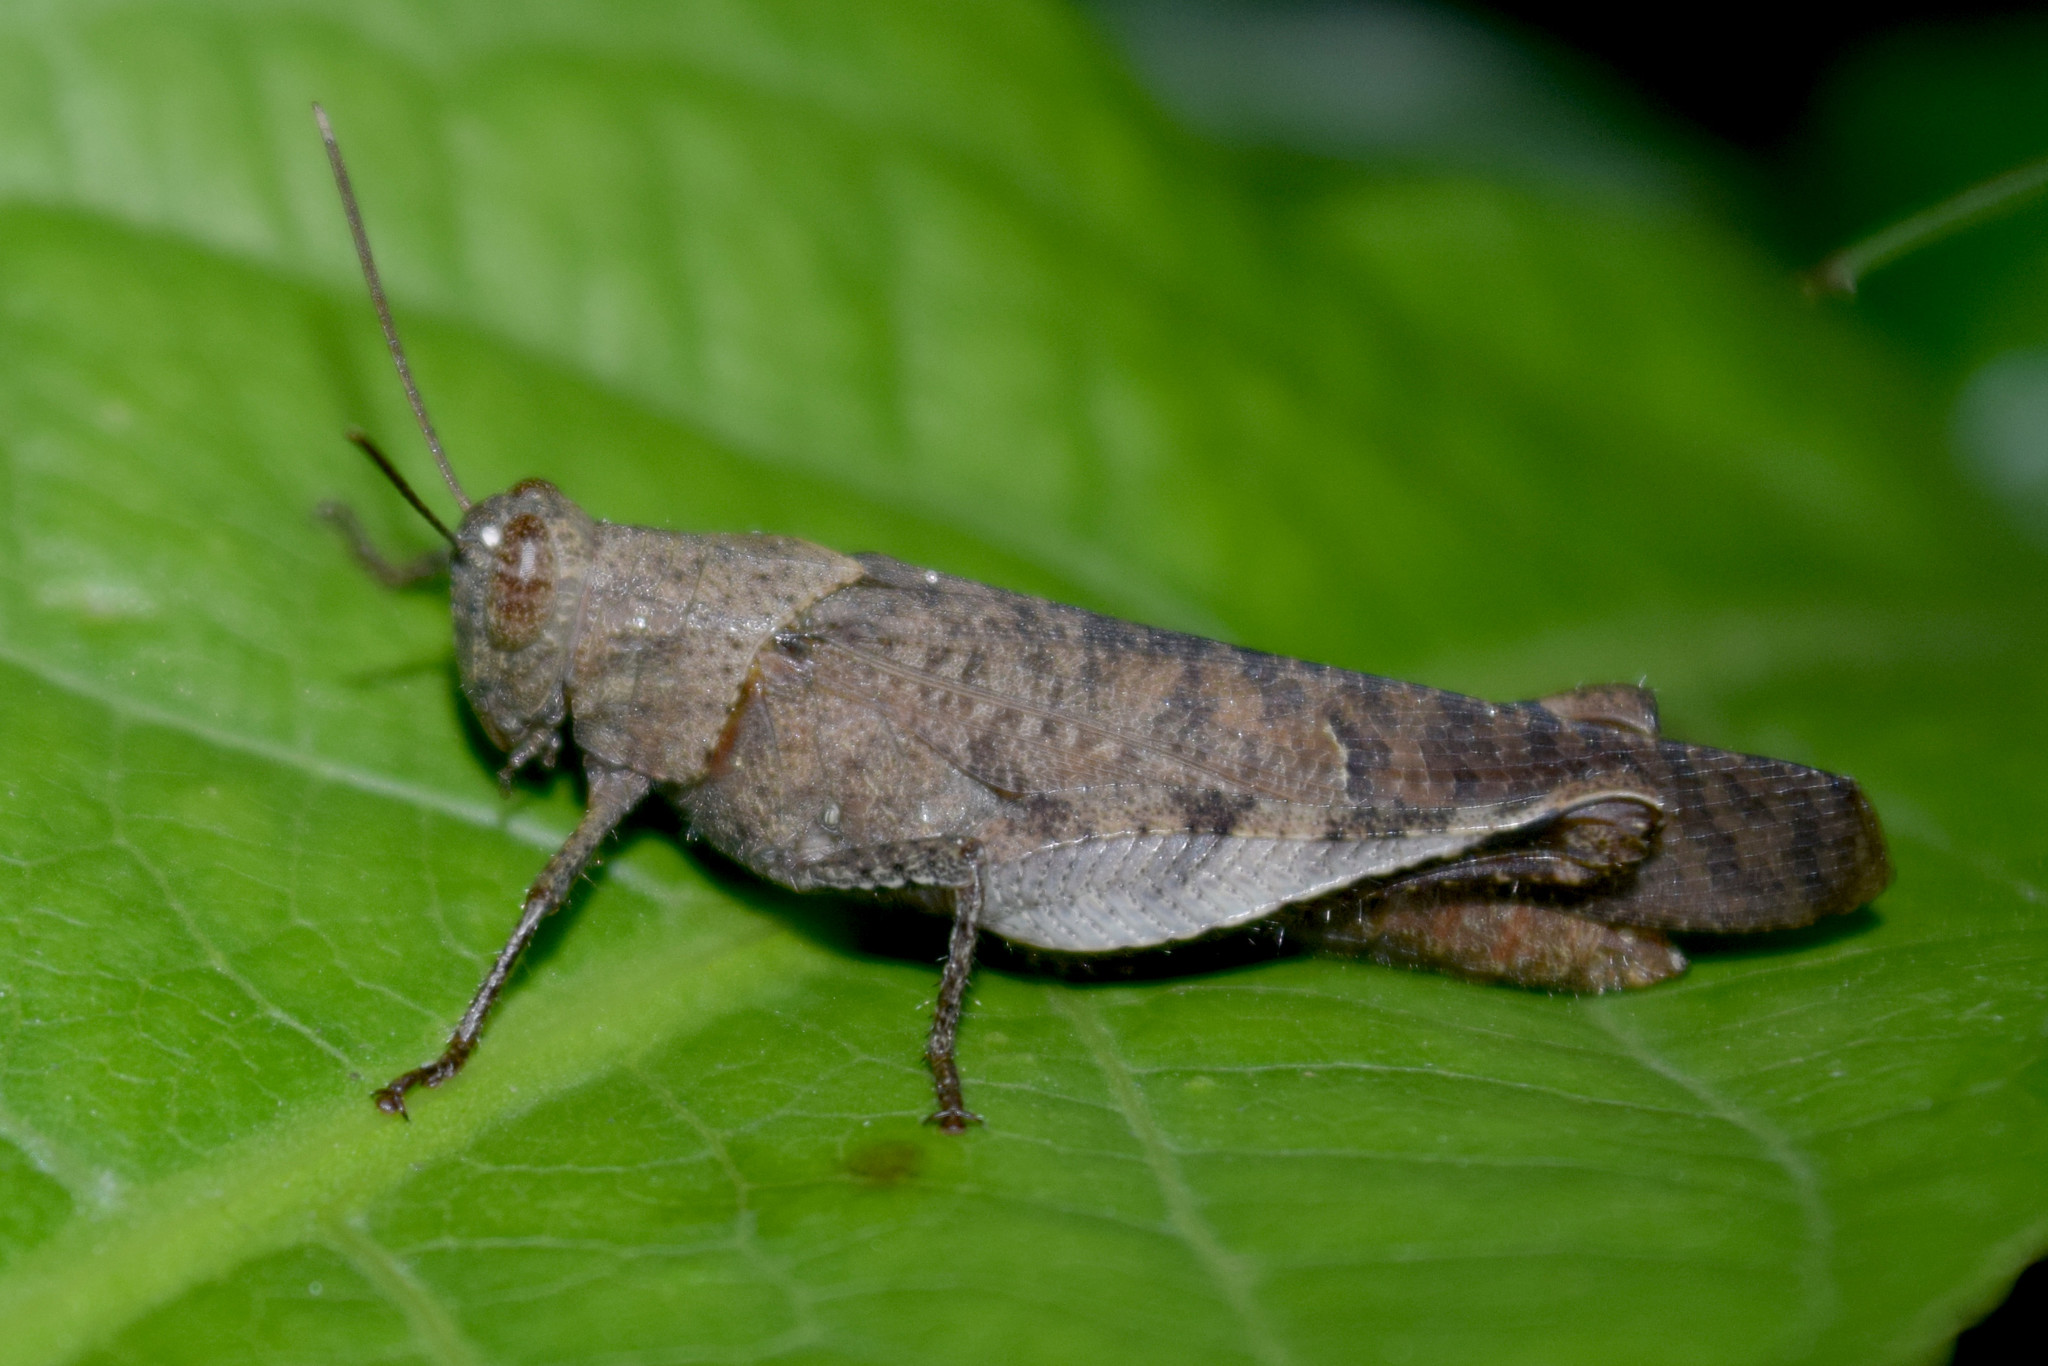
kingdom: Animalia
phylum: Arthropoda
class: Insecta
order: Orthoptera
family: Acrididae
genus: Eucoptacra
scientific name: Eucoptacra binghami
